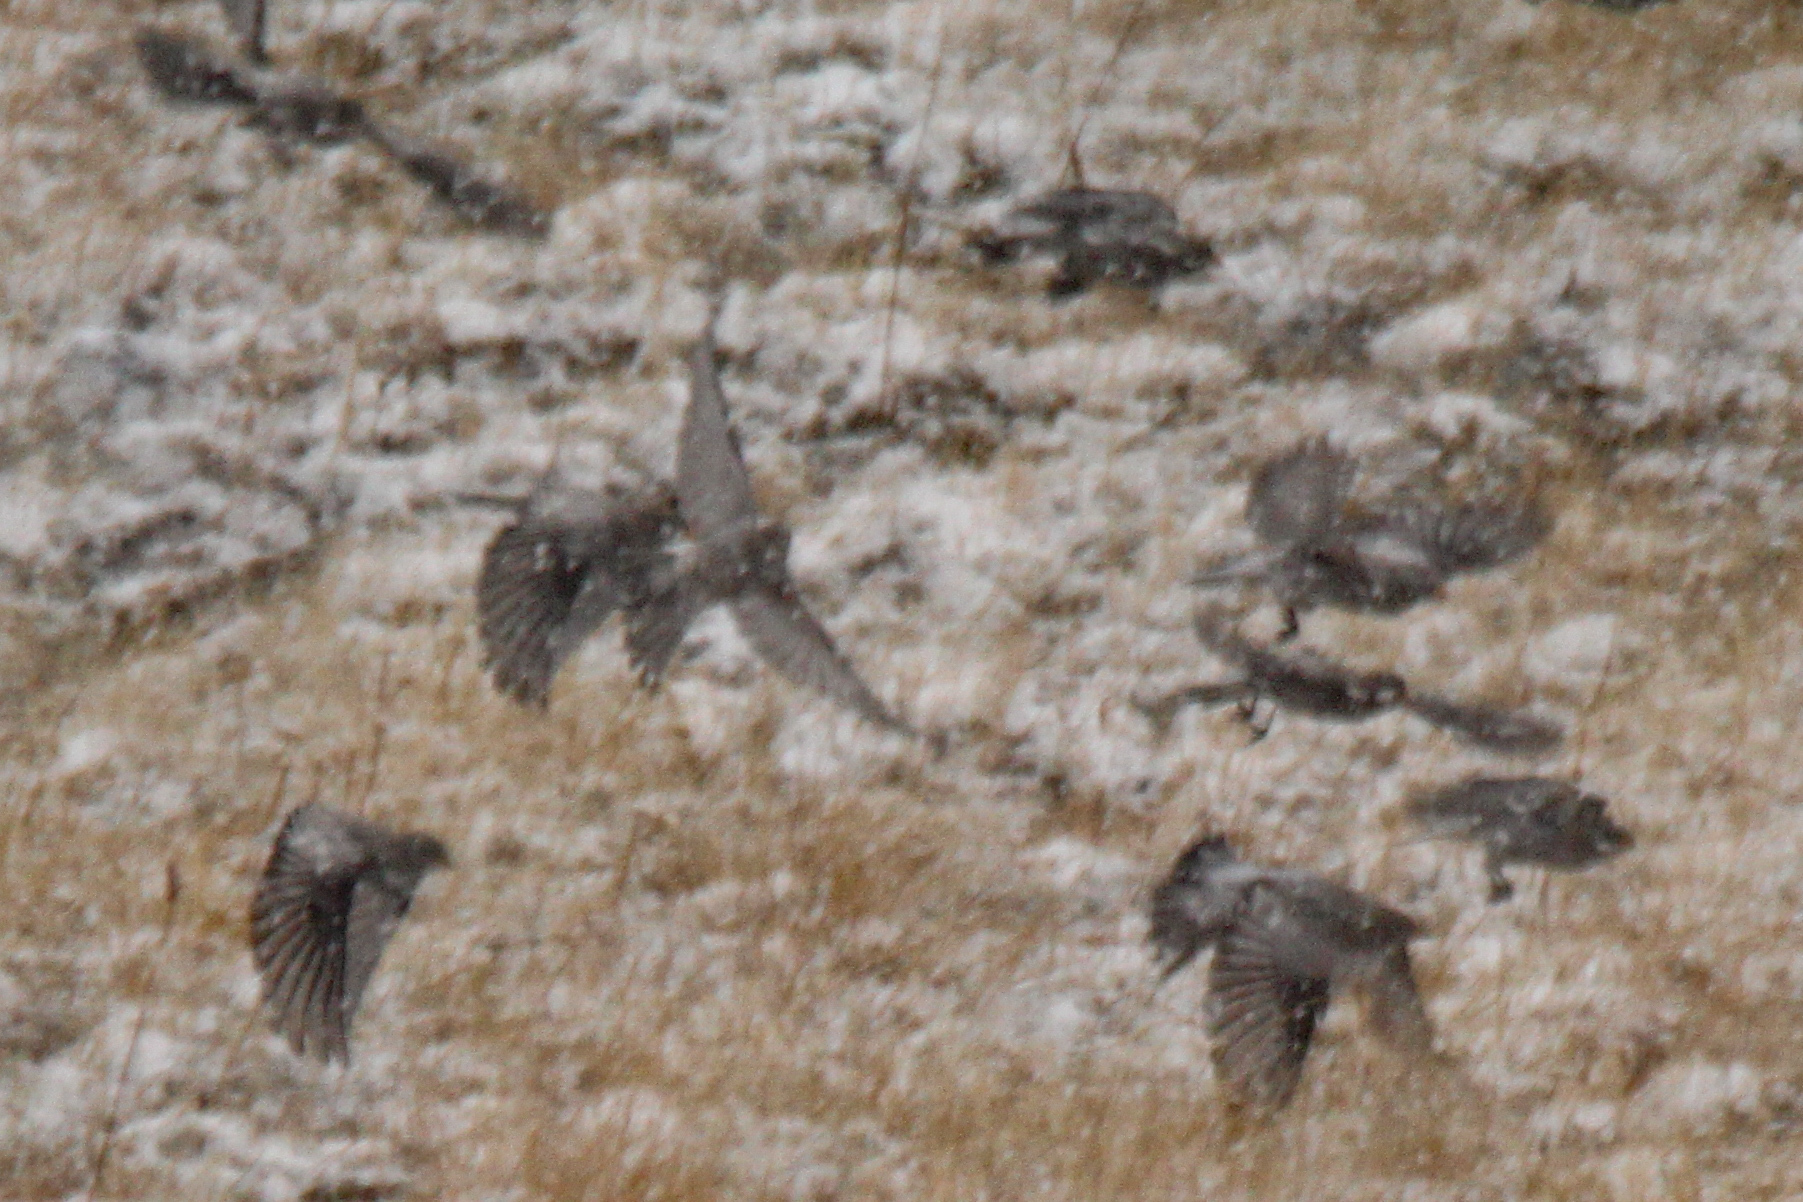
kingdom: Animalia
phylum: Chordata
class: Aves
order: Passeriformes
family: Fringillidae
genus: Leucosticte
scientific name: Leucosticte brandti
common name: Brandt's mountain finch
